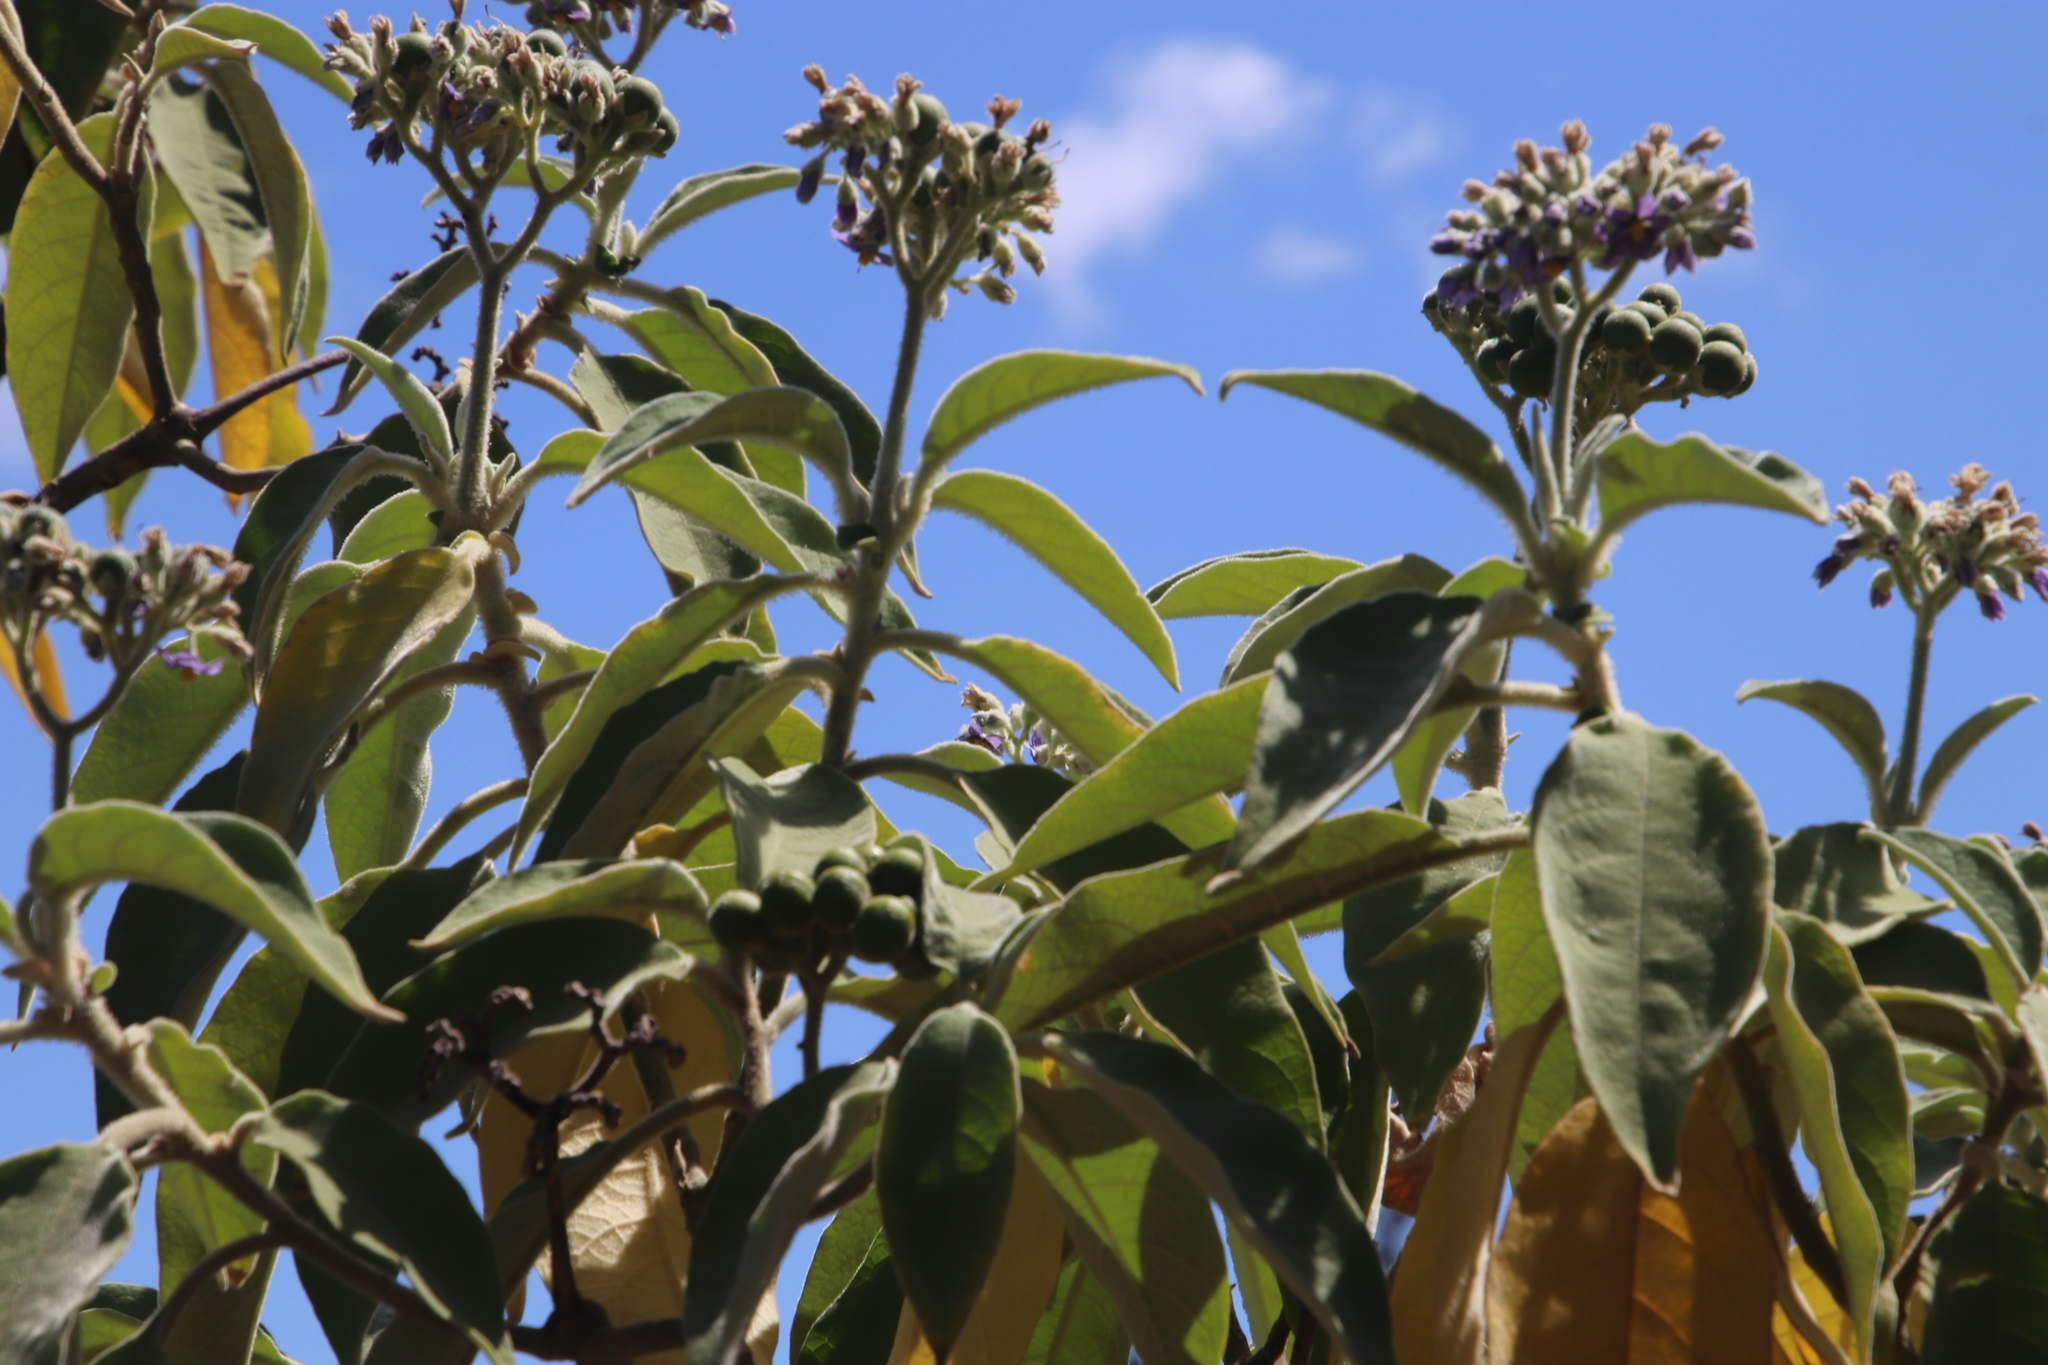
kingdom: Plantae
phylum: Tracheophyta
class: Magnoliopsida
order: Solanales
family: Solanaceae
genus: Solanum
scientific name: Solanum mauritianum
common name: Earleaf nightshade
